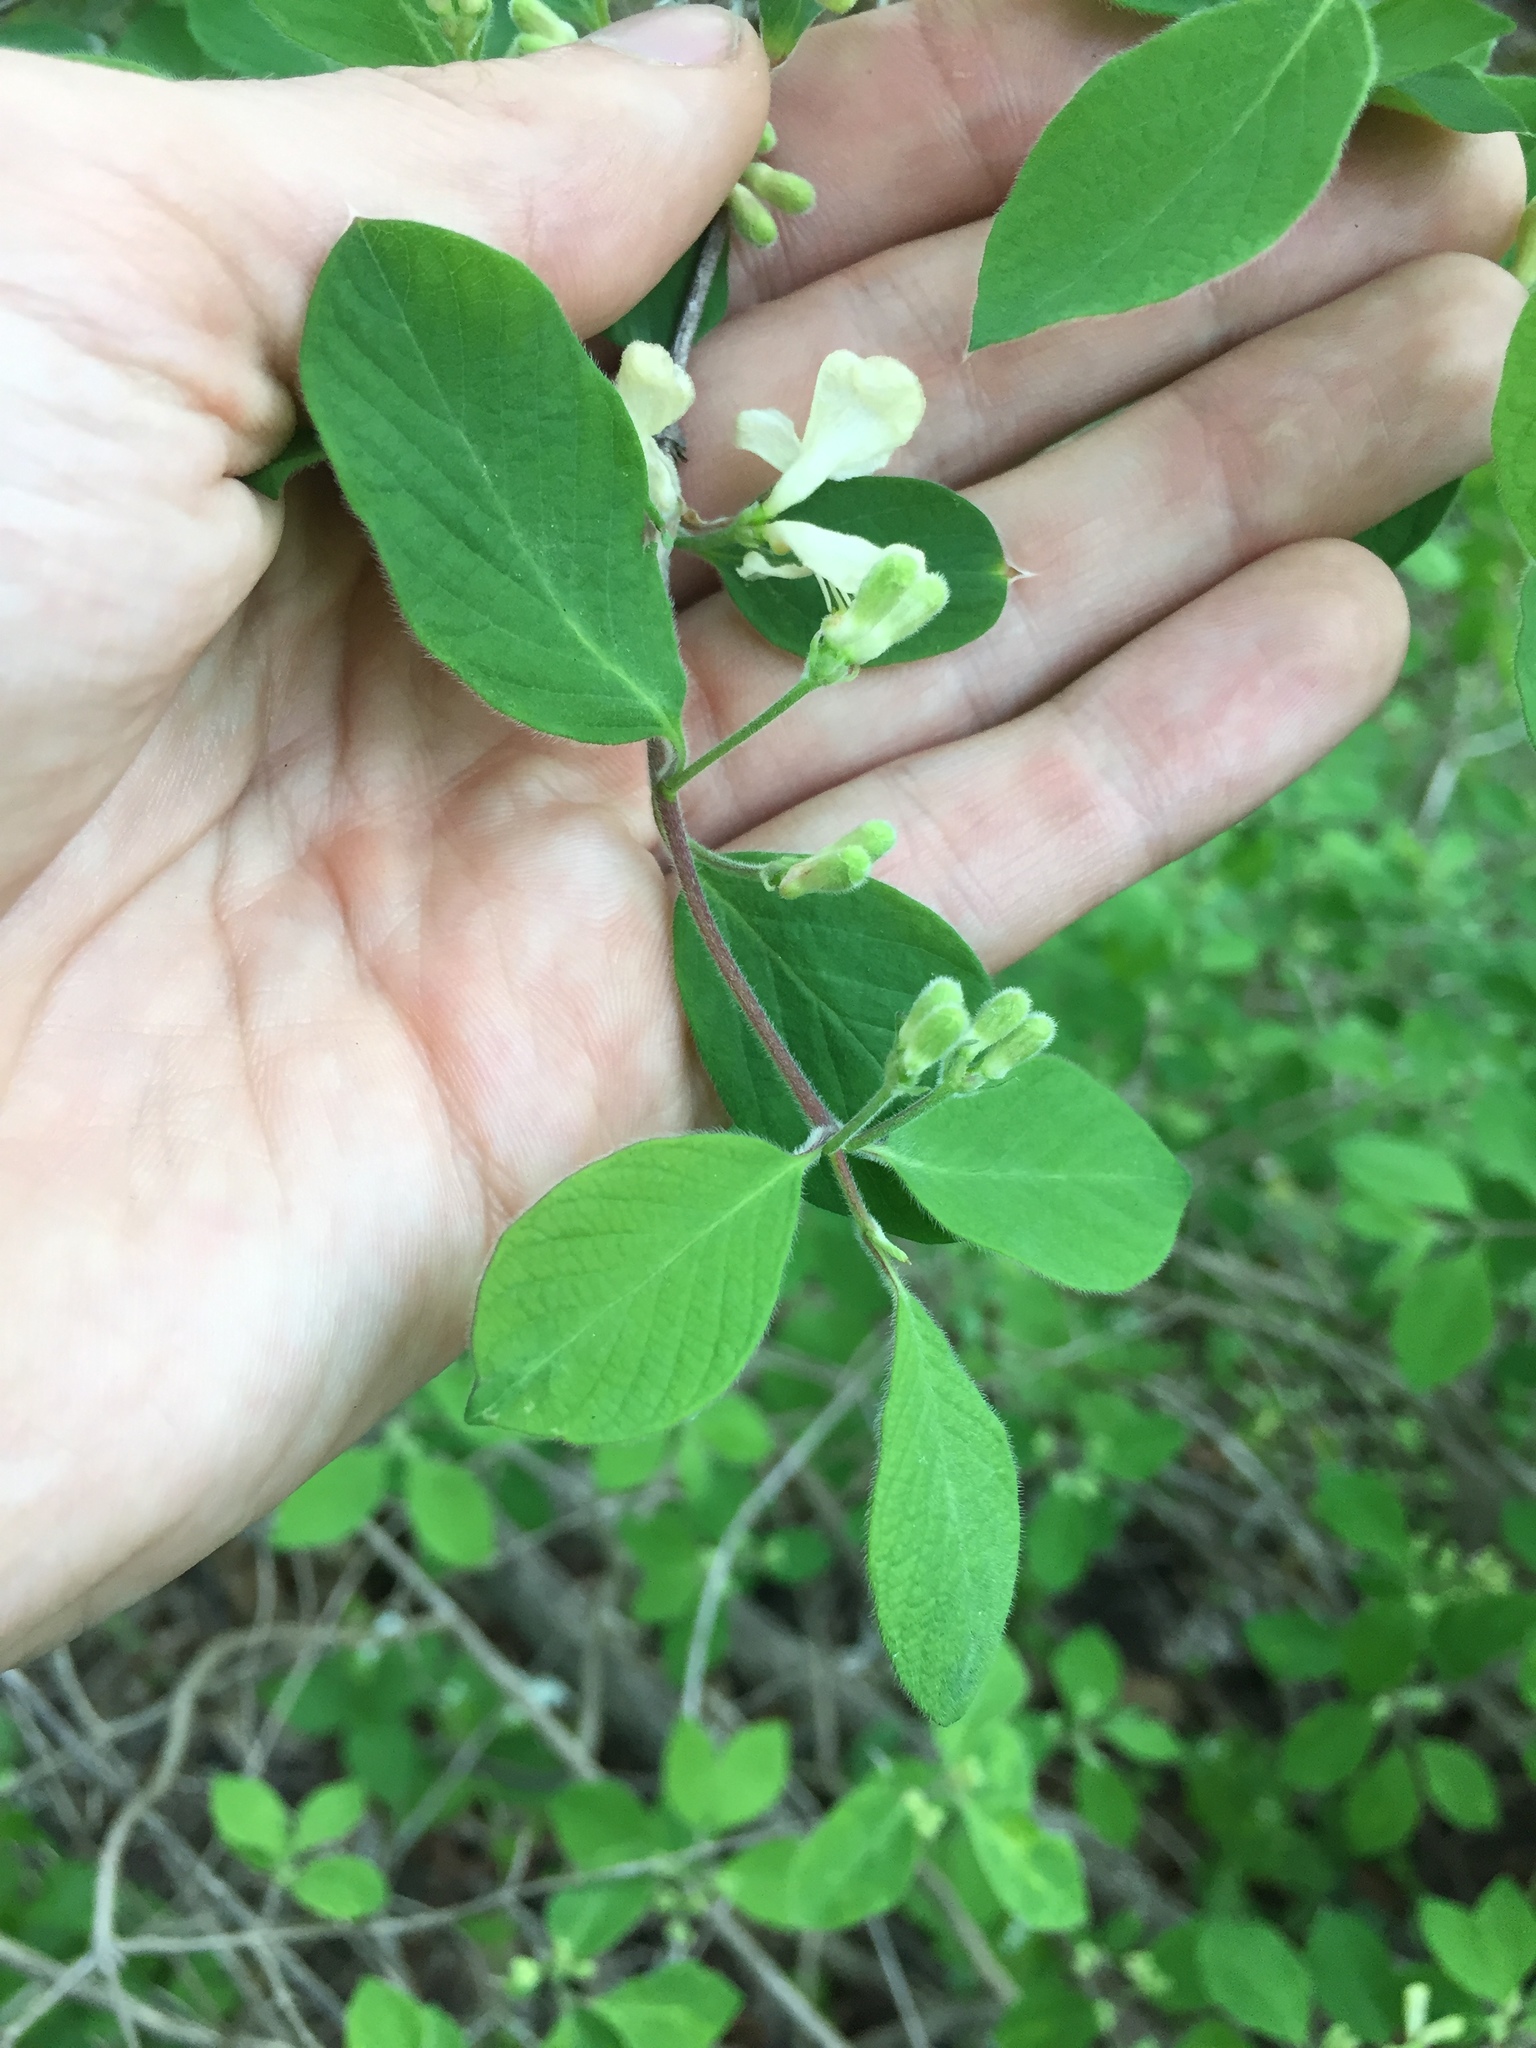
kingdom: Plantae
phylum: Tracheophyta
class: Magnoliopsida
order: Dipsacales
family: Caprifoliaceae
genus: Lonicera
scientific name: Lonicera morrowii
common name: Morrow's honeysuckle
